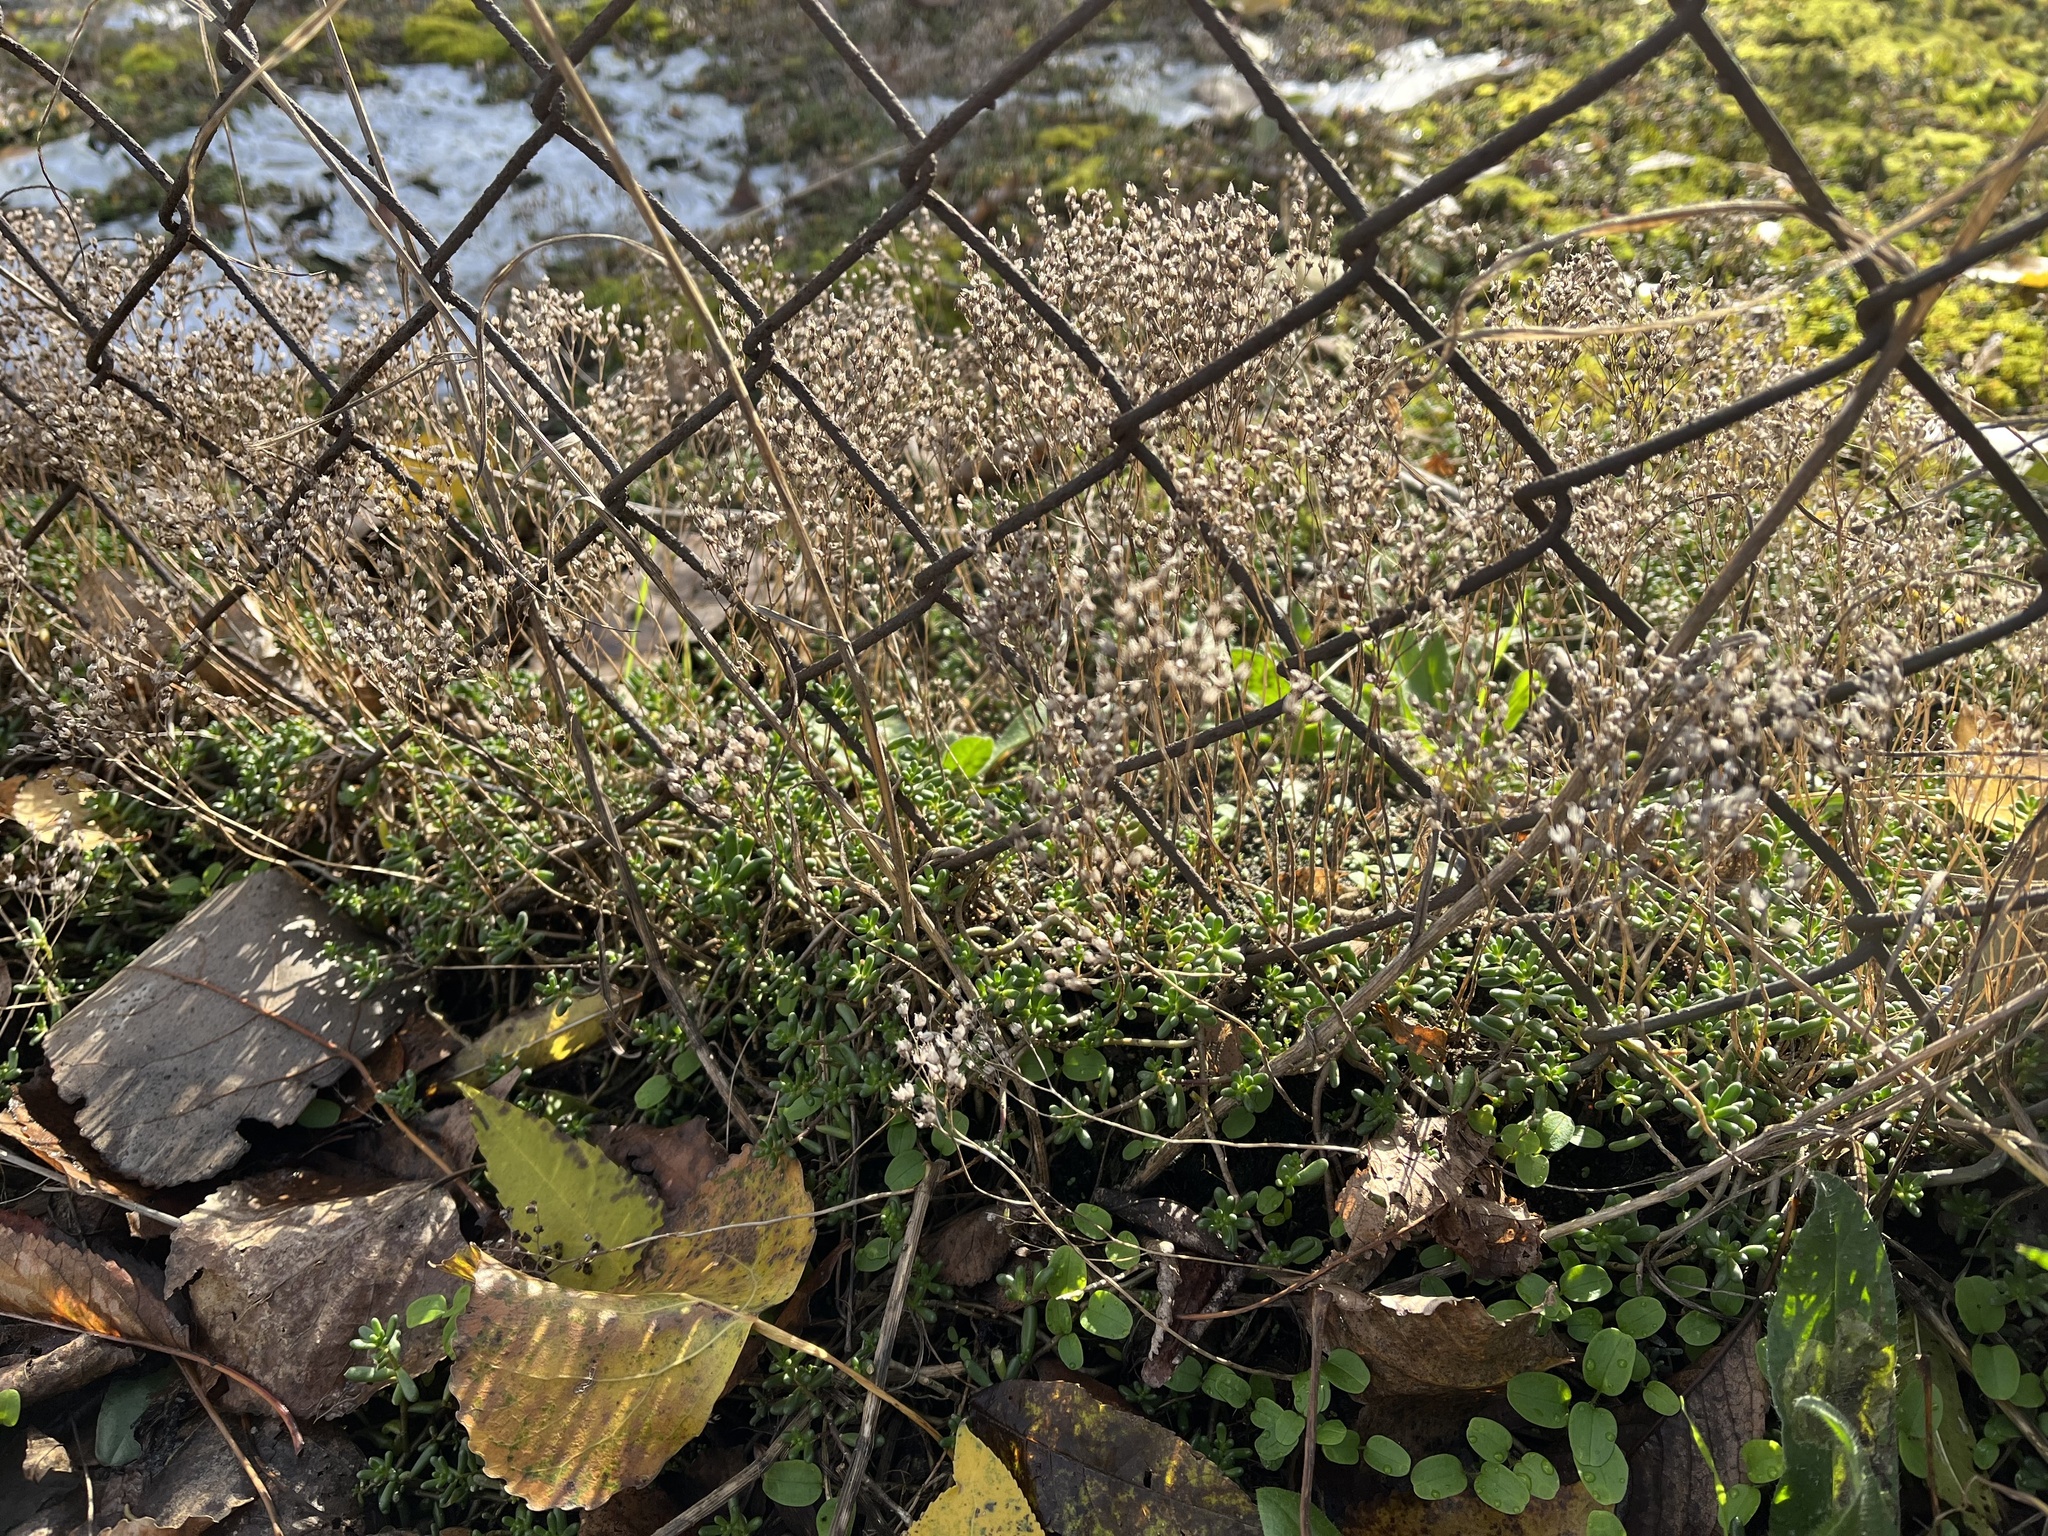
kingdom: Plantae
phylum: Tracheophyta
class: Magnoliopsida
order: Saxifragales
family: Crassulaceae
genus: Sedum
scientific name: Sedum album
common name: White stonecrop
